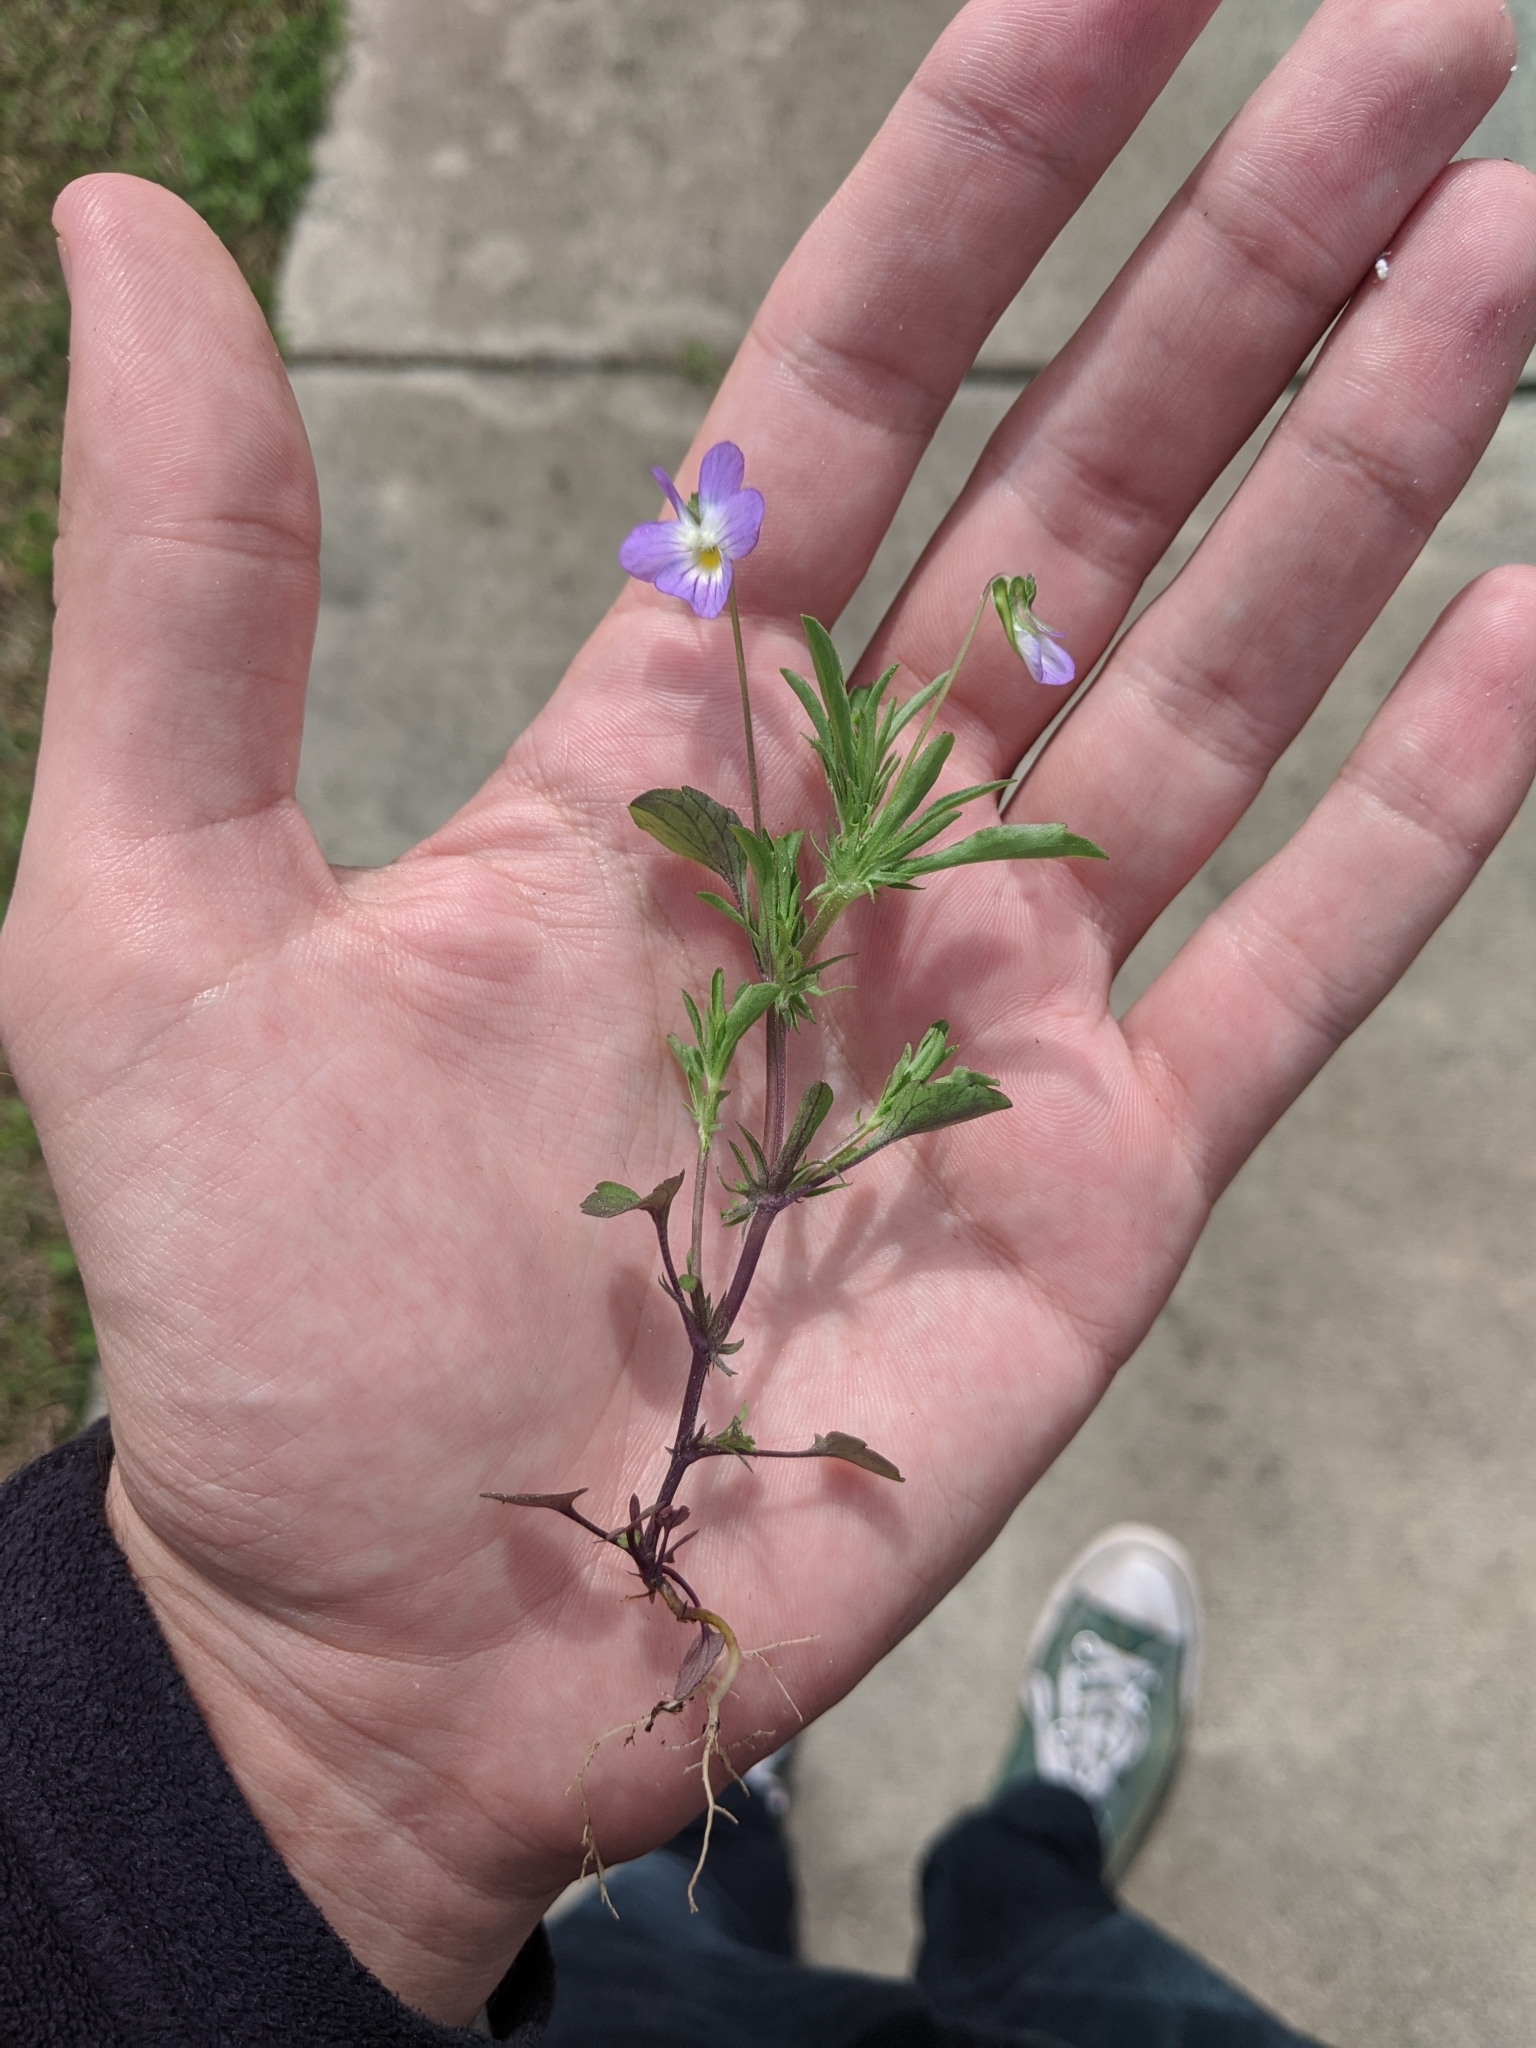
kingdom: Plantae
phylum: Tracheophyta
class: Magnoliopsida
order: Malpighiales
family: Violaceae
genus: Viola
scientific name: Viola rafinesquei
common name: American field pansy
